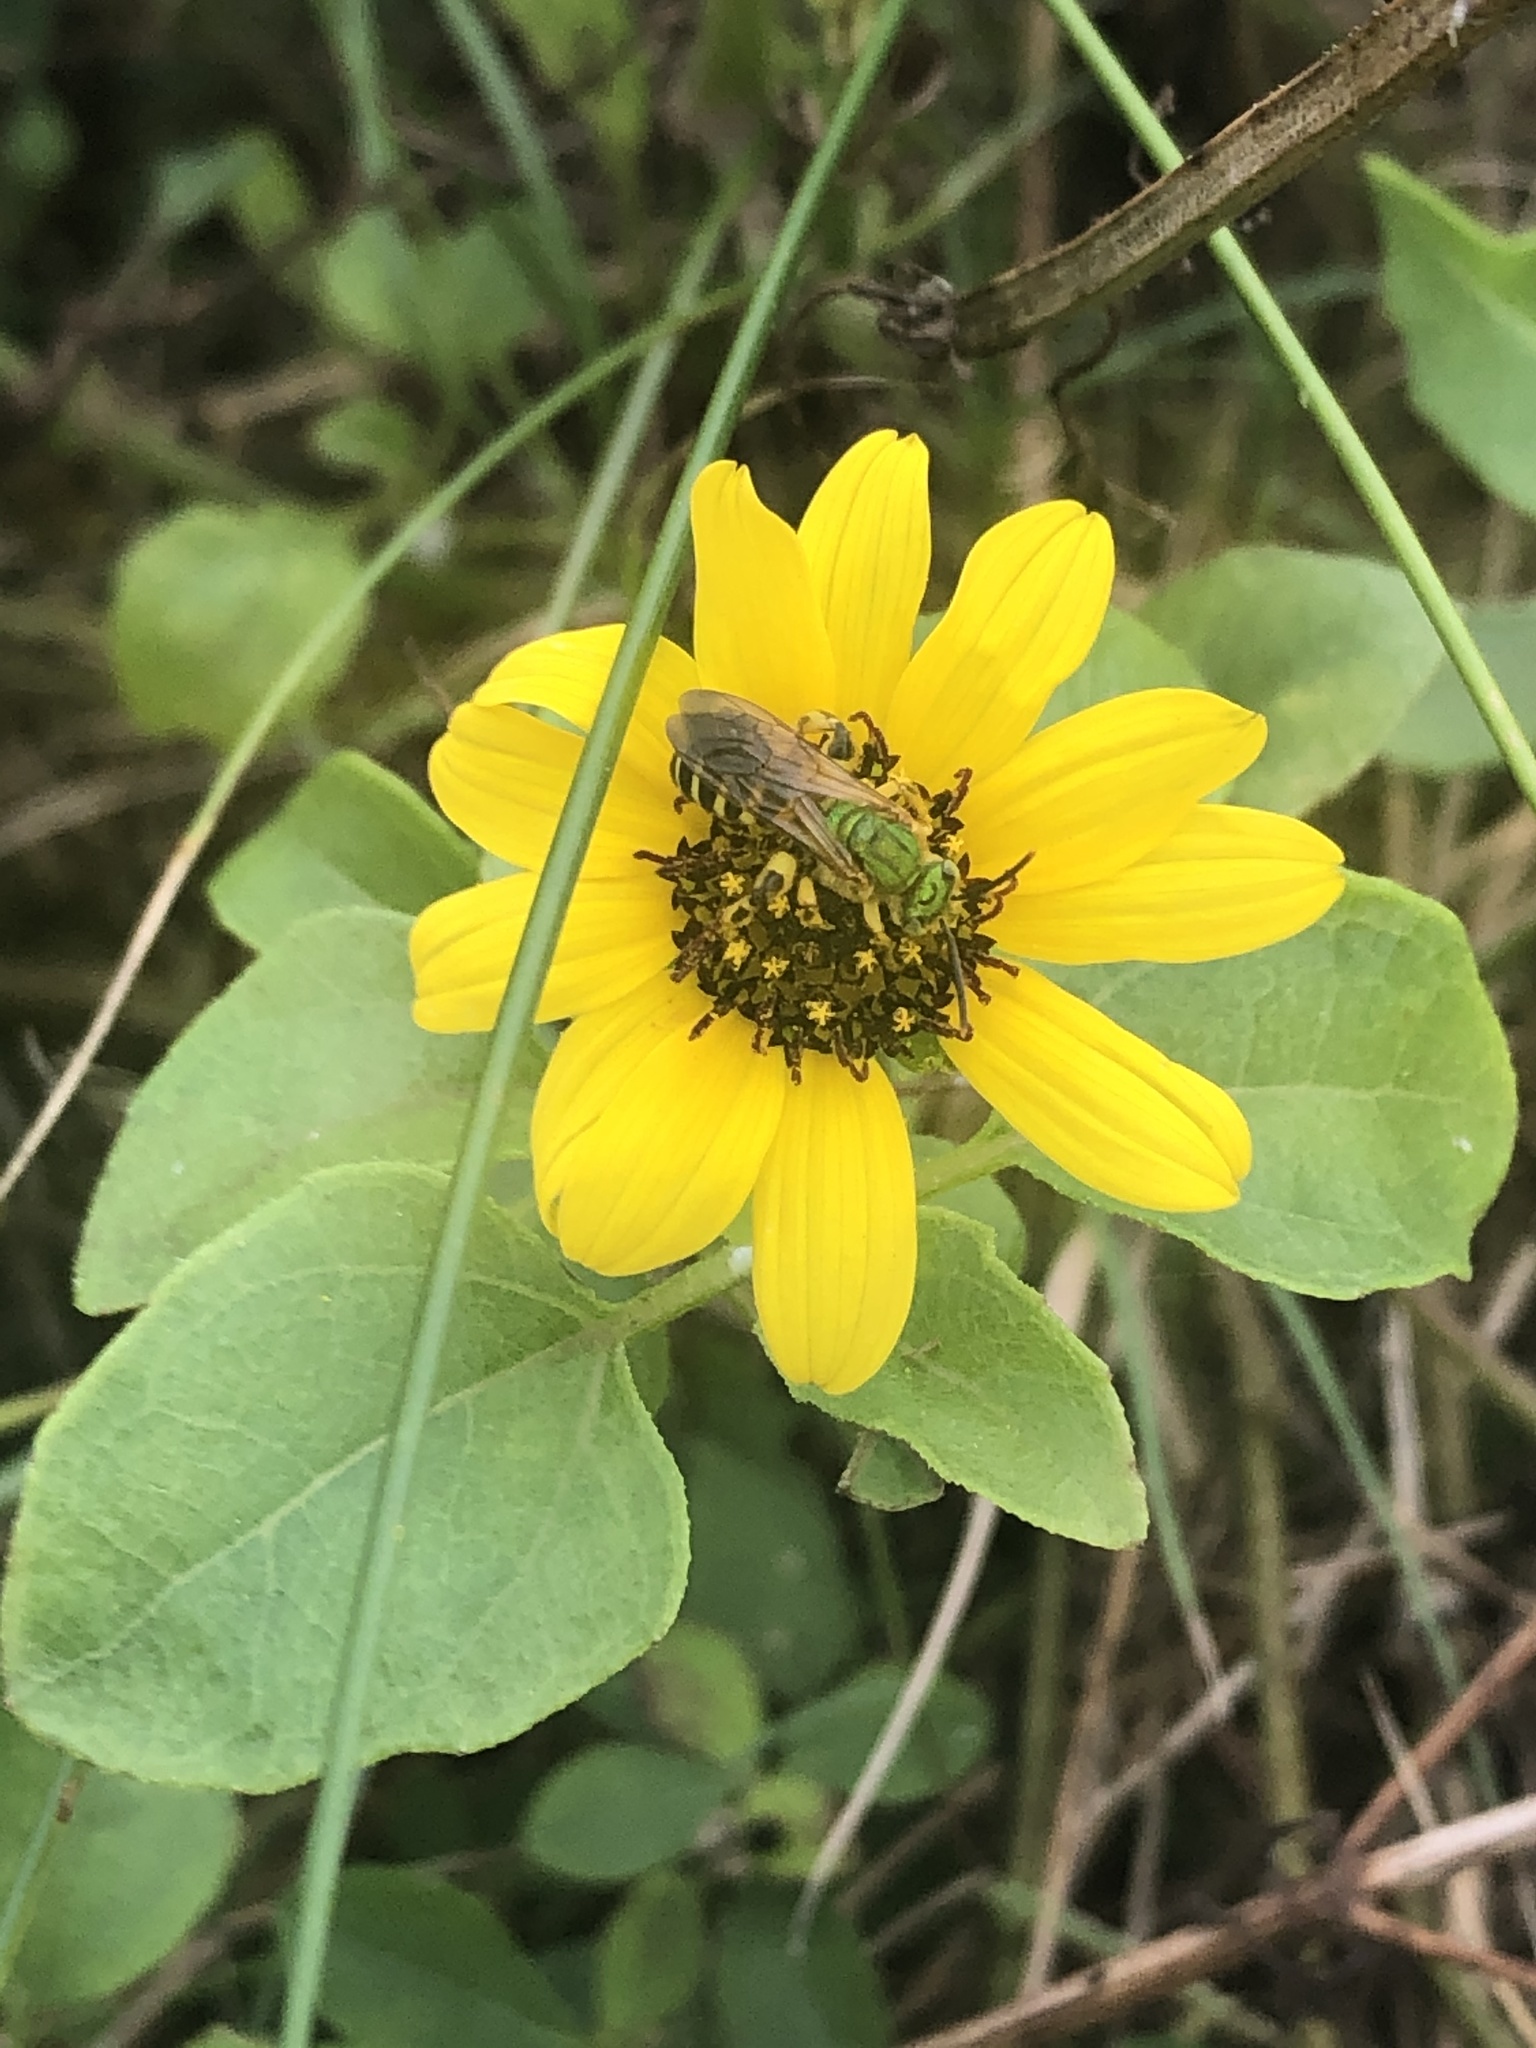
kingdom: Animalia
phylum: Arthropoda
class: Insecta
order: Hymenoptera
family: Halictidae
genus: Agapostemon
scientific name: Agapostemon splendens
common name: Brown-winged striped sweat bee
